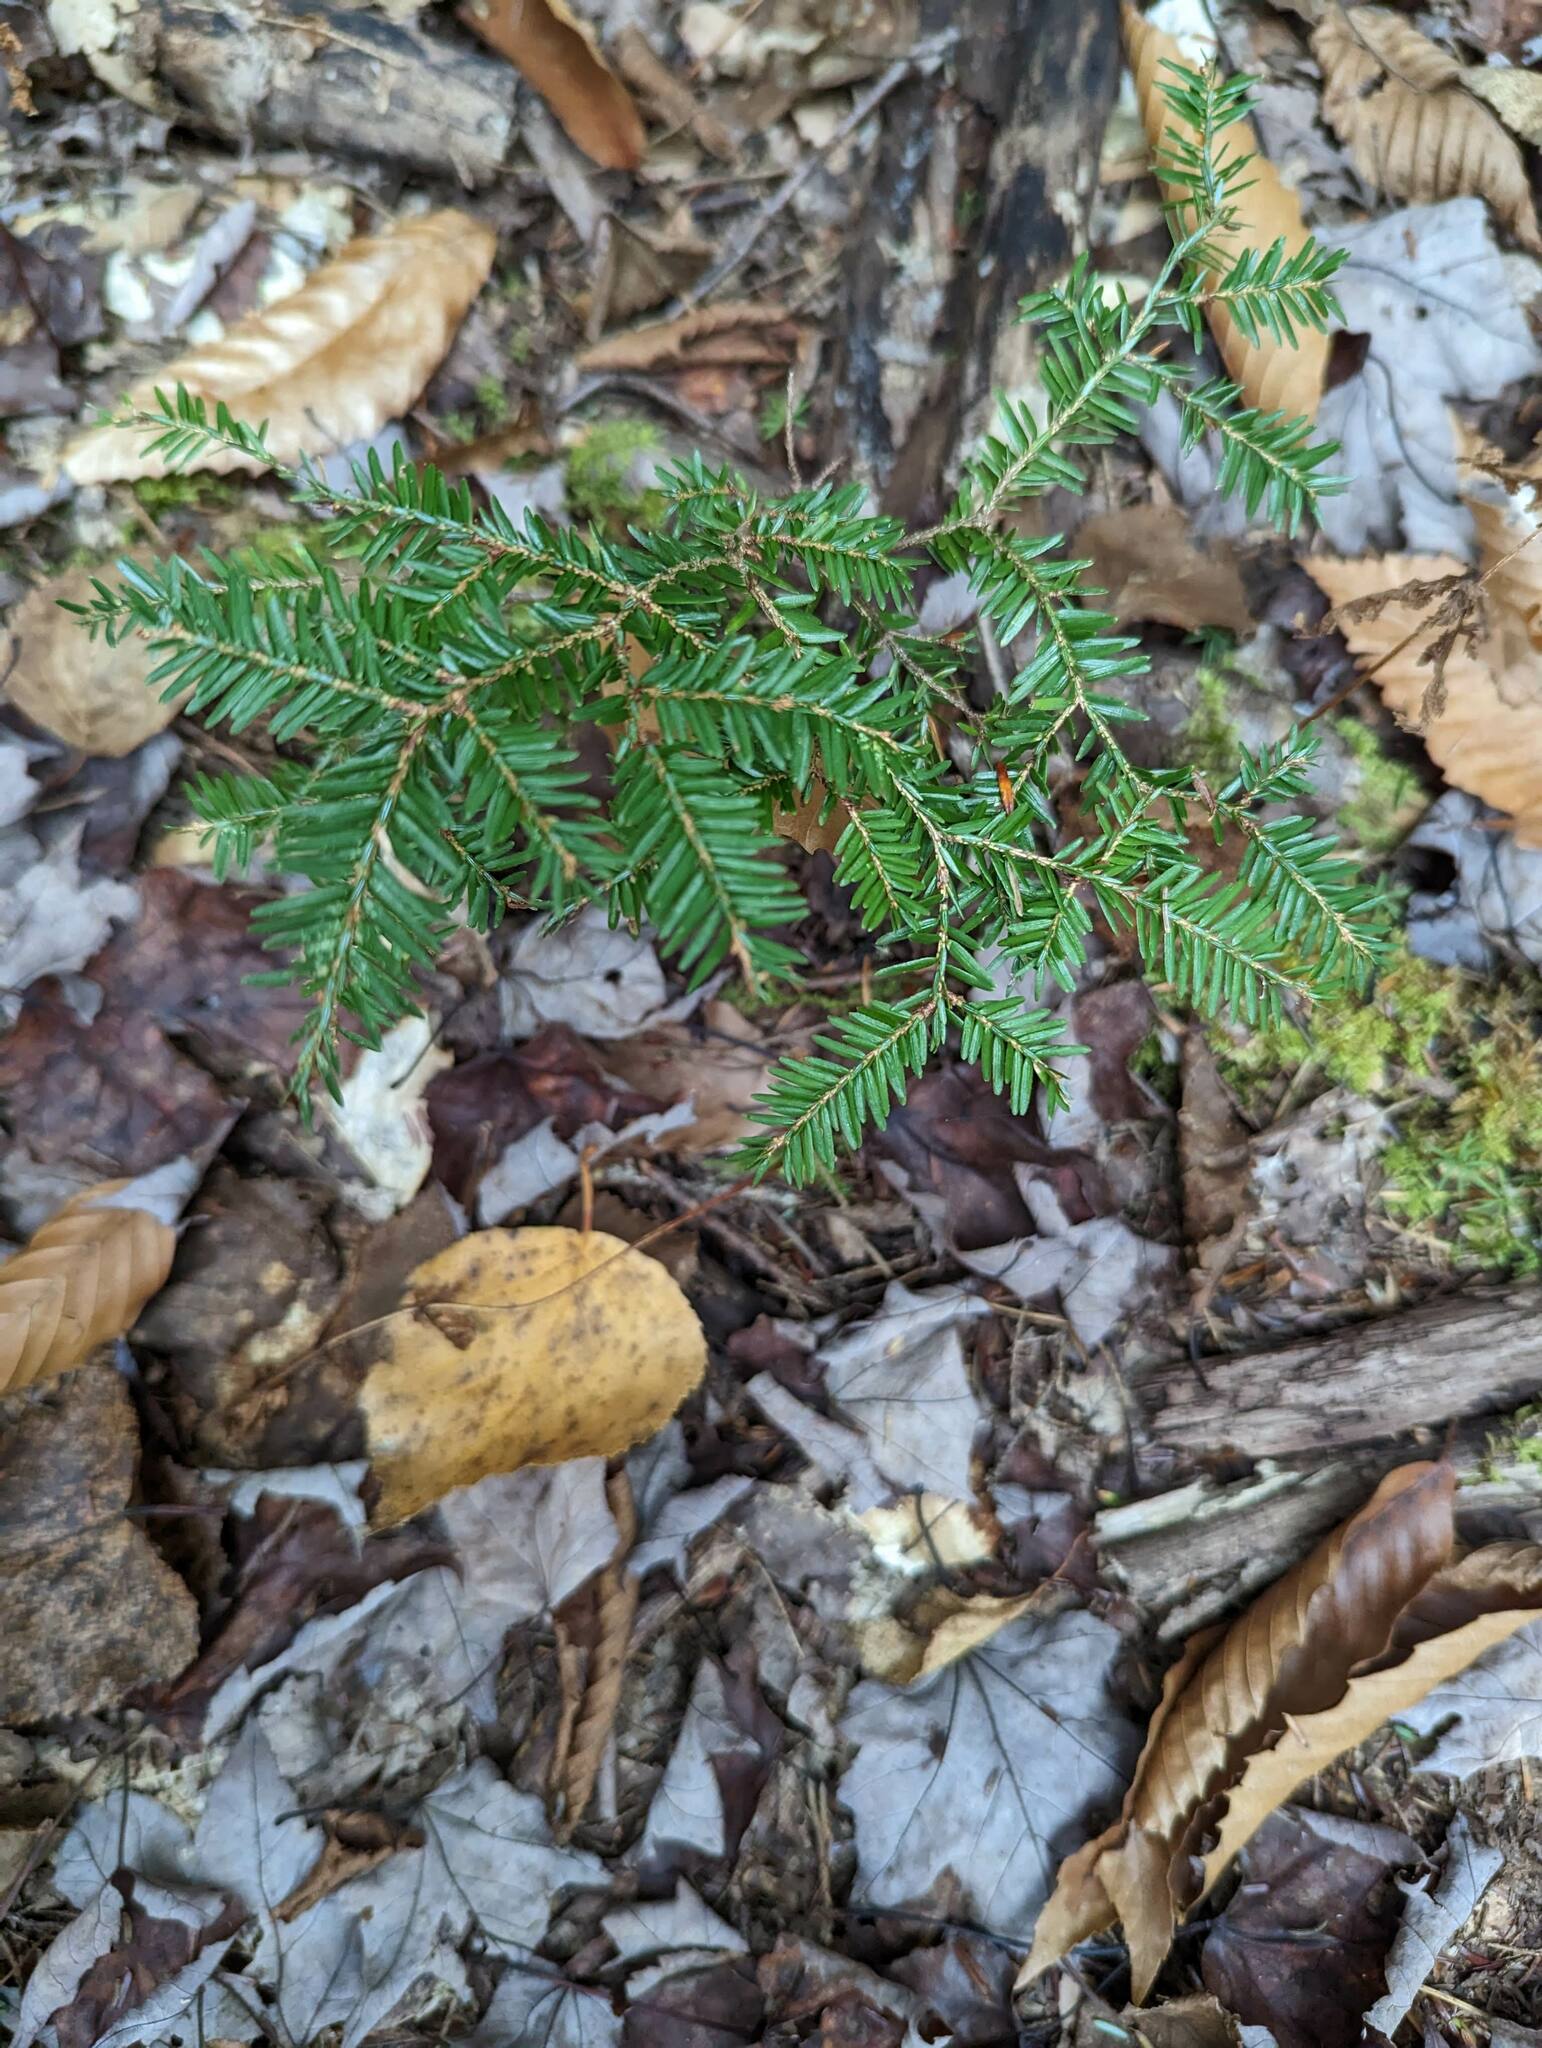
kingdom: Plantae
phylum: Tracheophyta
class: Pinopsida
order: Pinales
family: Pinaceae
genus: Tsuga
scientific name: Tsuga canadensis
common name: Eastern hemlock
